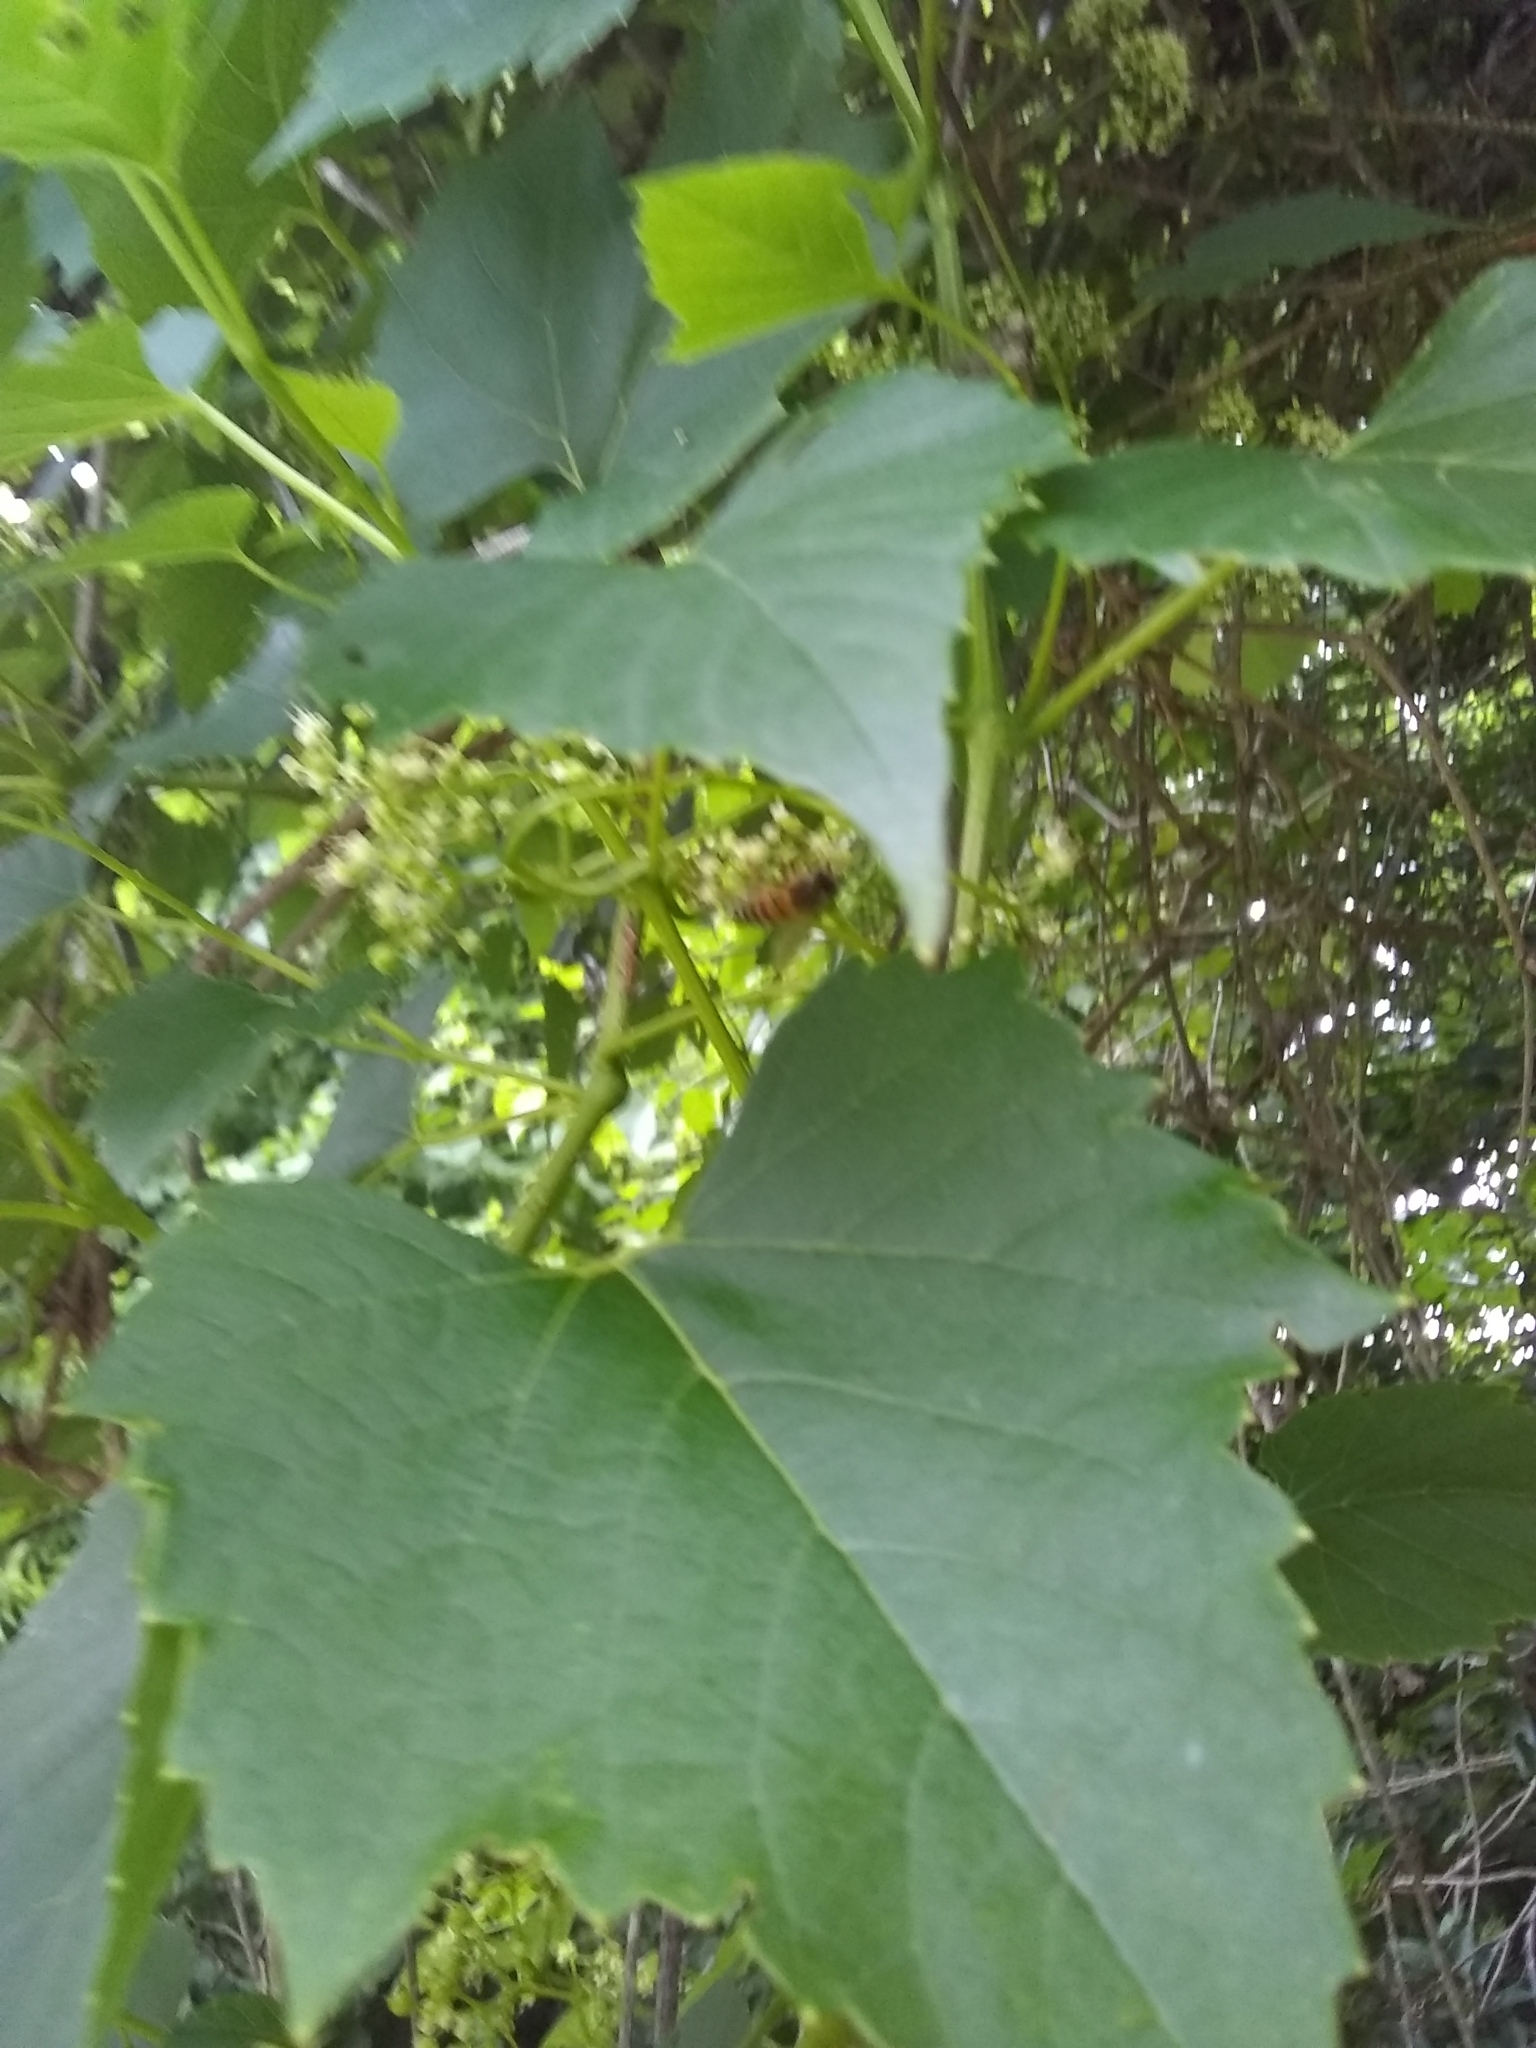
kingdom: Animalia
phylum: Arthropoda
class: Insecta
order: Hymenoptera
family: Apidae
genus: Apis
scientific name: Apis mellifera
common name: Honey bee
